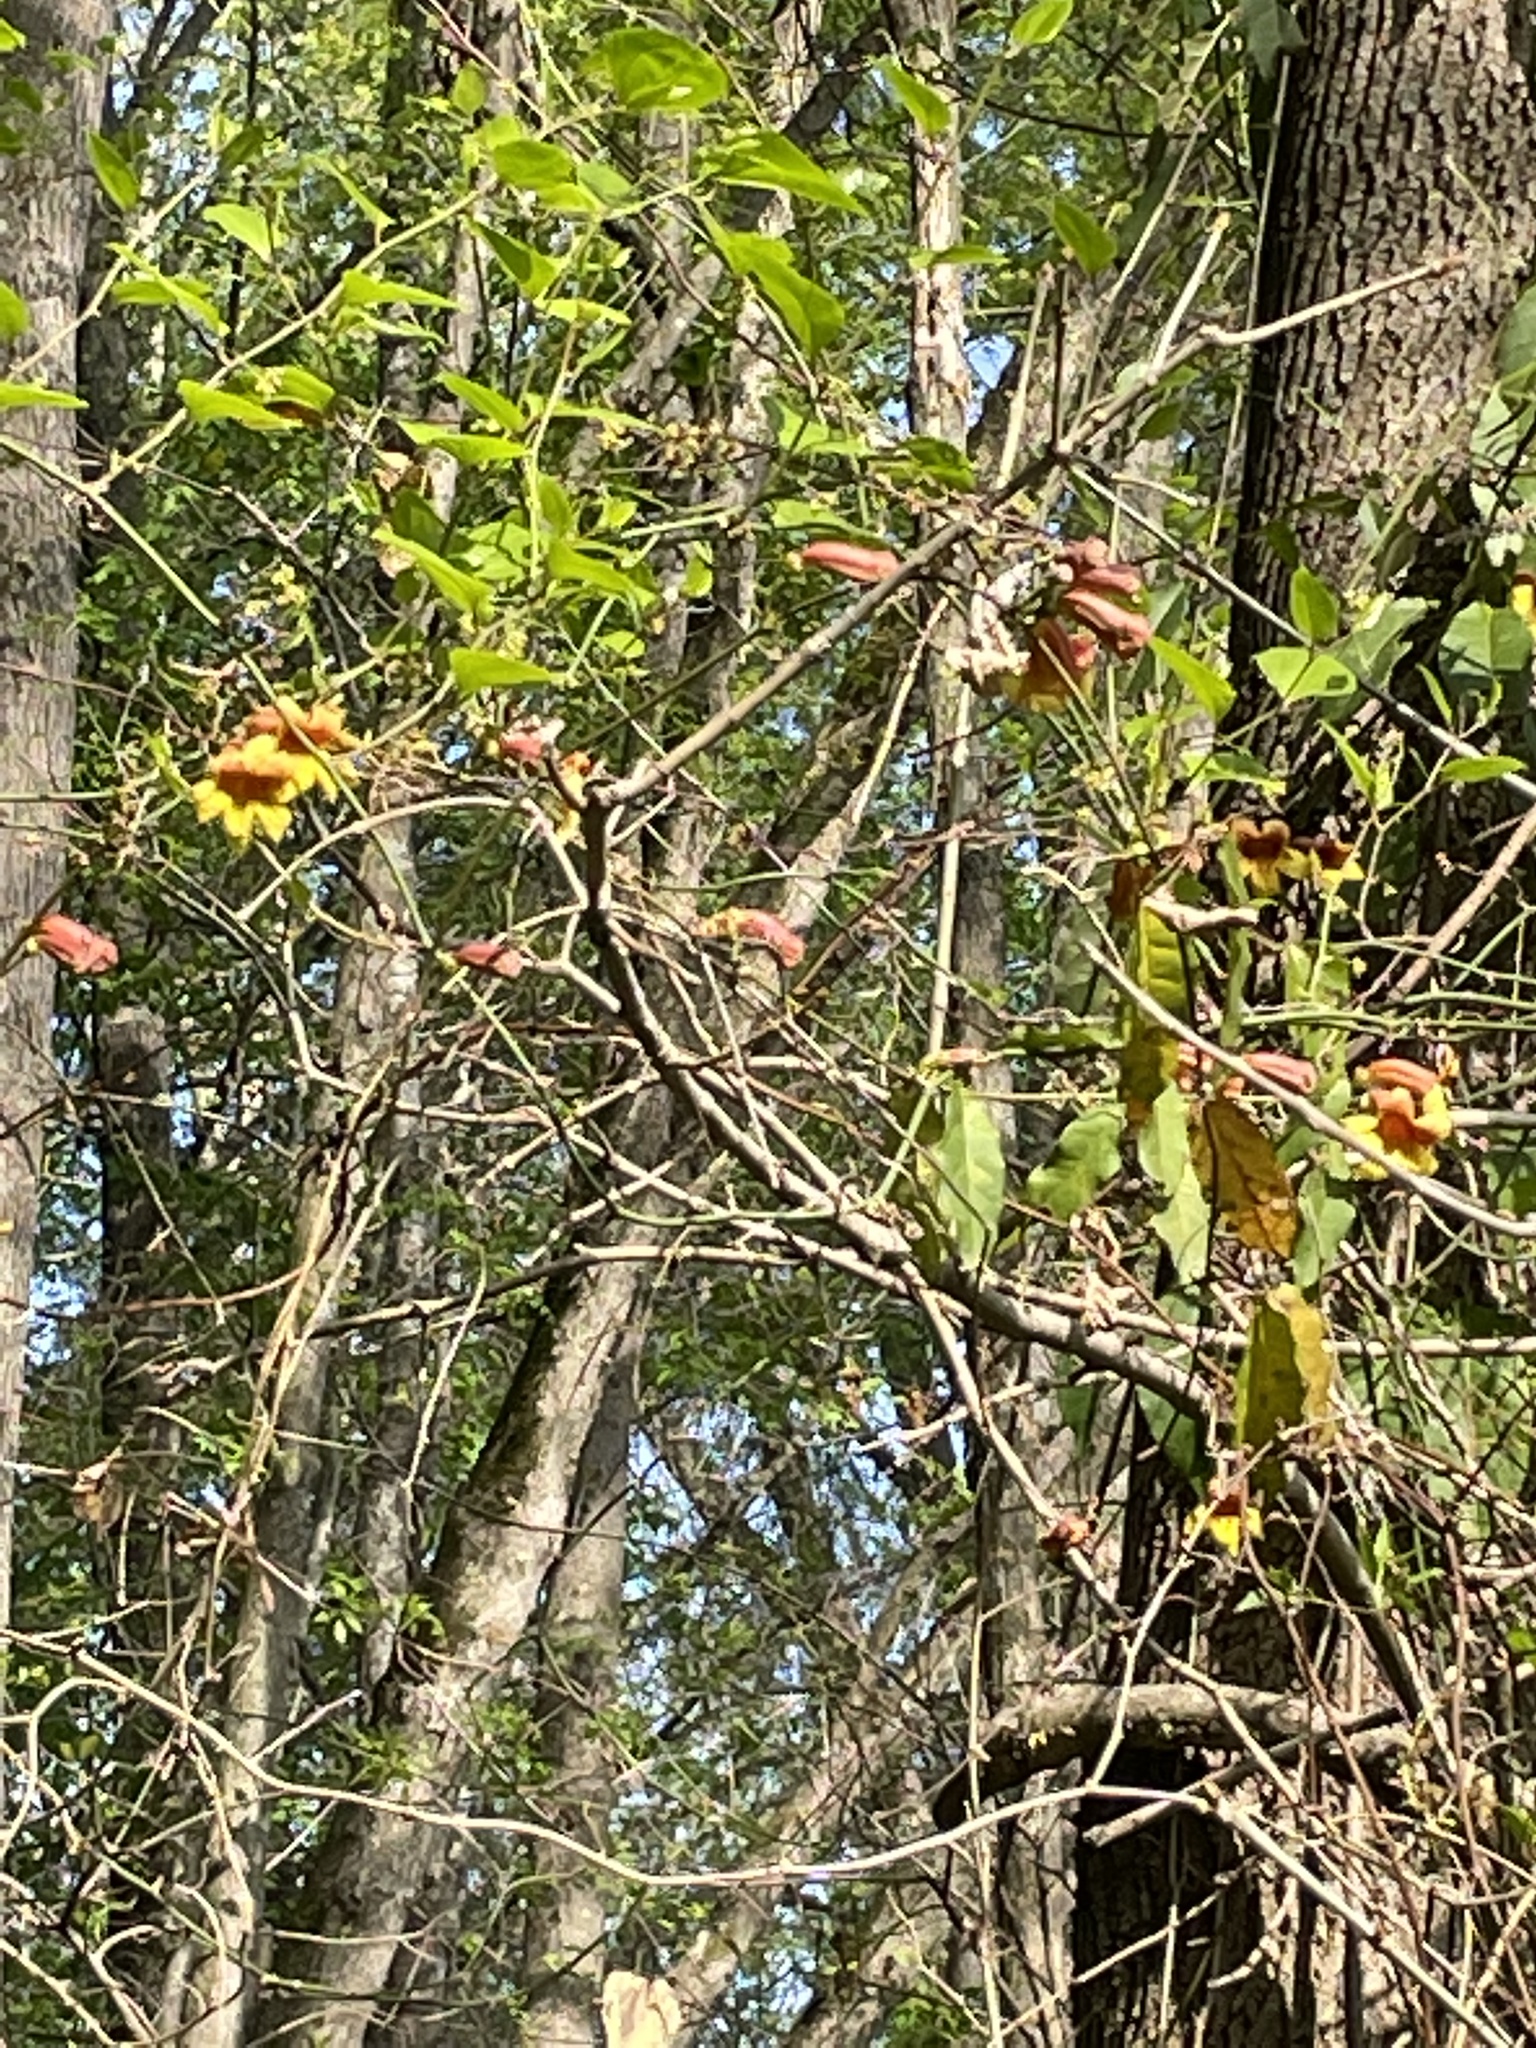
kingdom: Plantae
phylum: Tracheophyta
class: Magnoliopsida
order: Lamiales
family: Bignoniaceae
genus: Bignonia
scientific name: Bignonia capreolata
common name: Crossvine
